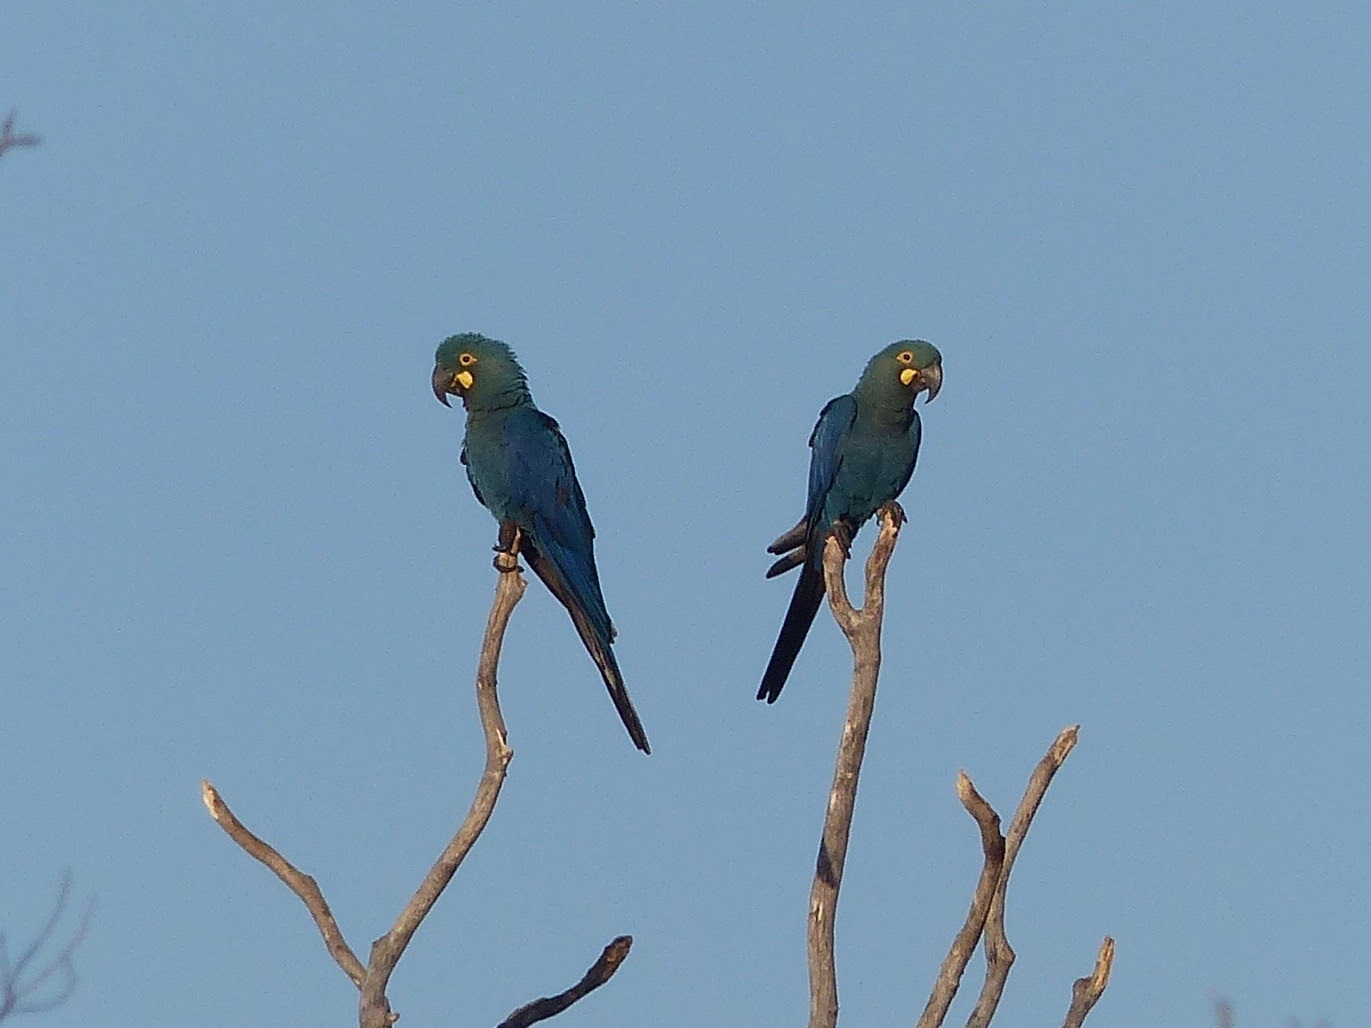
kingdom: Animalia
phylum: Chordata
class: Aves
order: Psittaciformes
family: Psittacidae
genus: Anodorhynchus
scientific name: Anodorhynchus leari
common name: Lear's macaw
